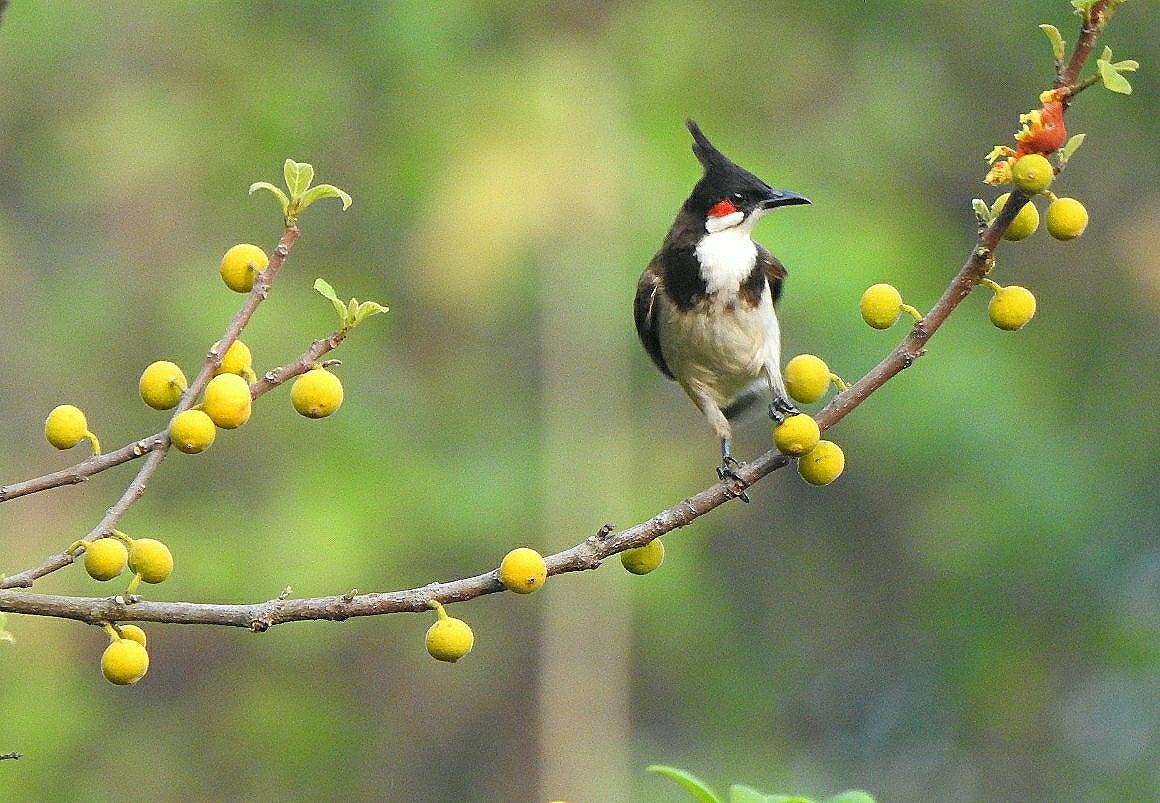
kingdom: Animalia
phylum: Chordata
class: Aves
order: Passeriformes
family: Pycnonotidae
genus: Pycnonotus
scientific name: Pycnonotus jocosus
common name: Red-whiskered bulbul
